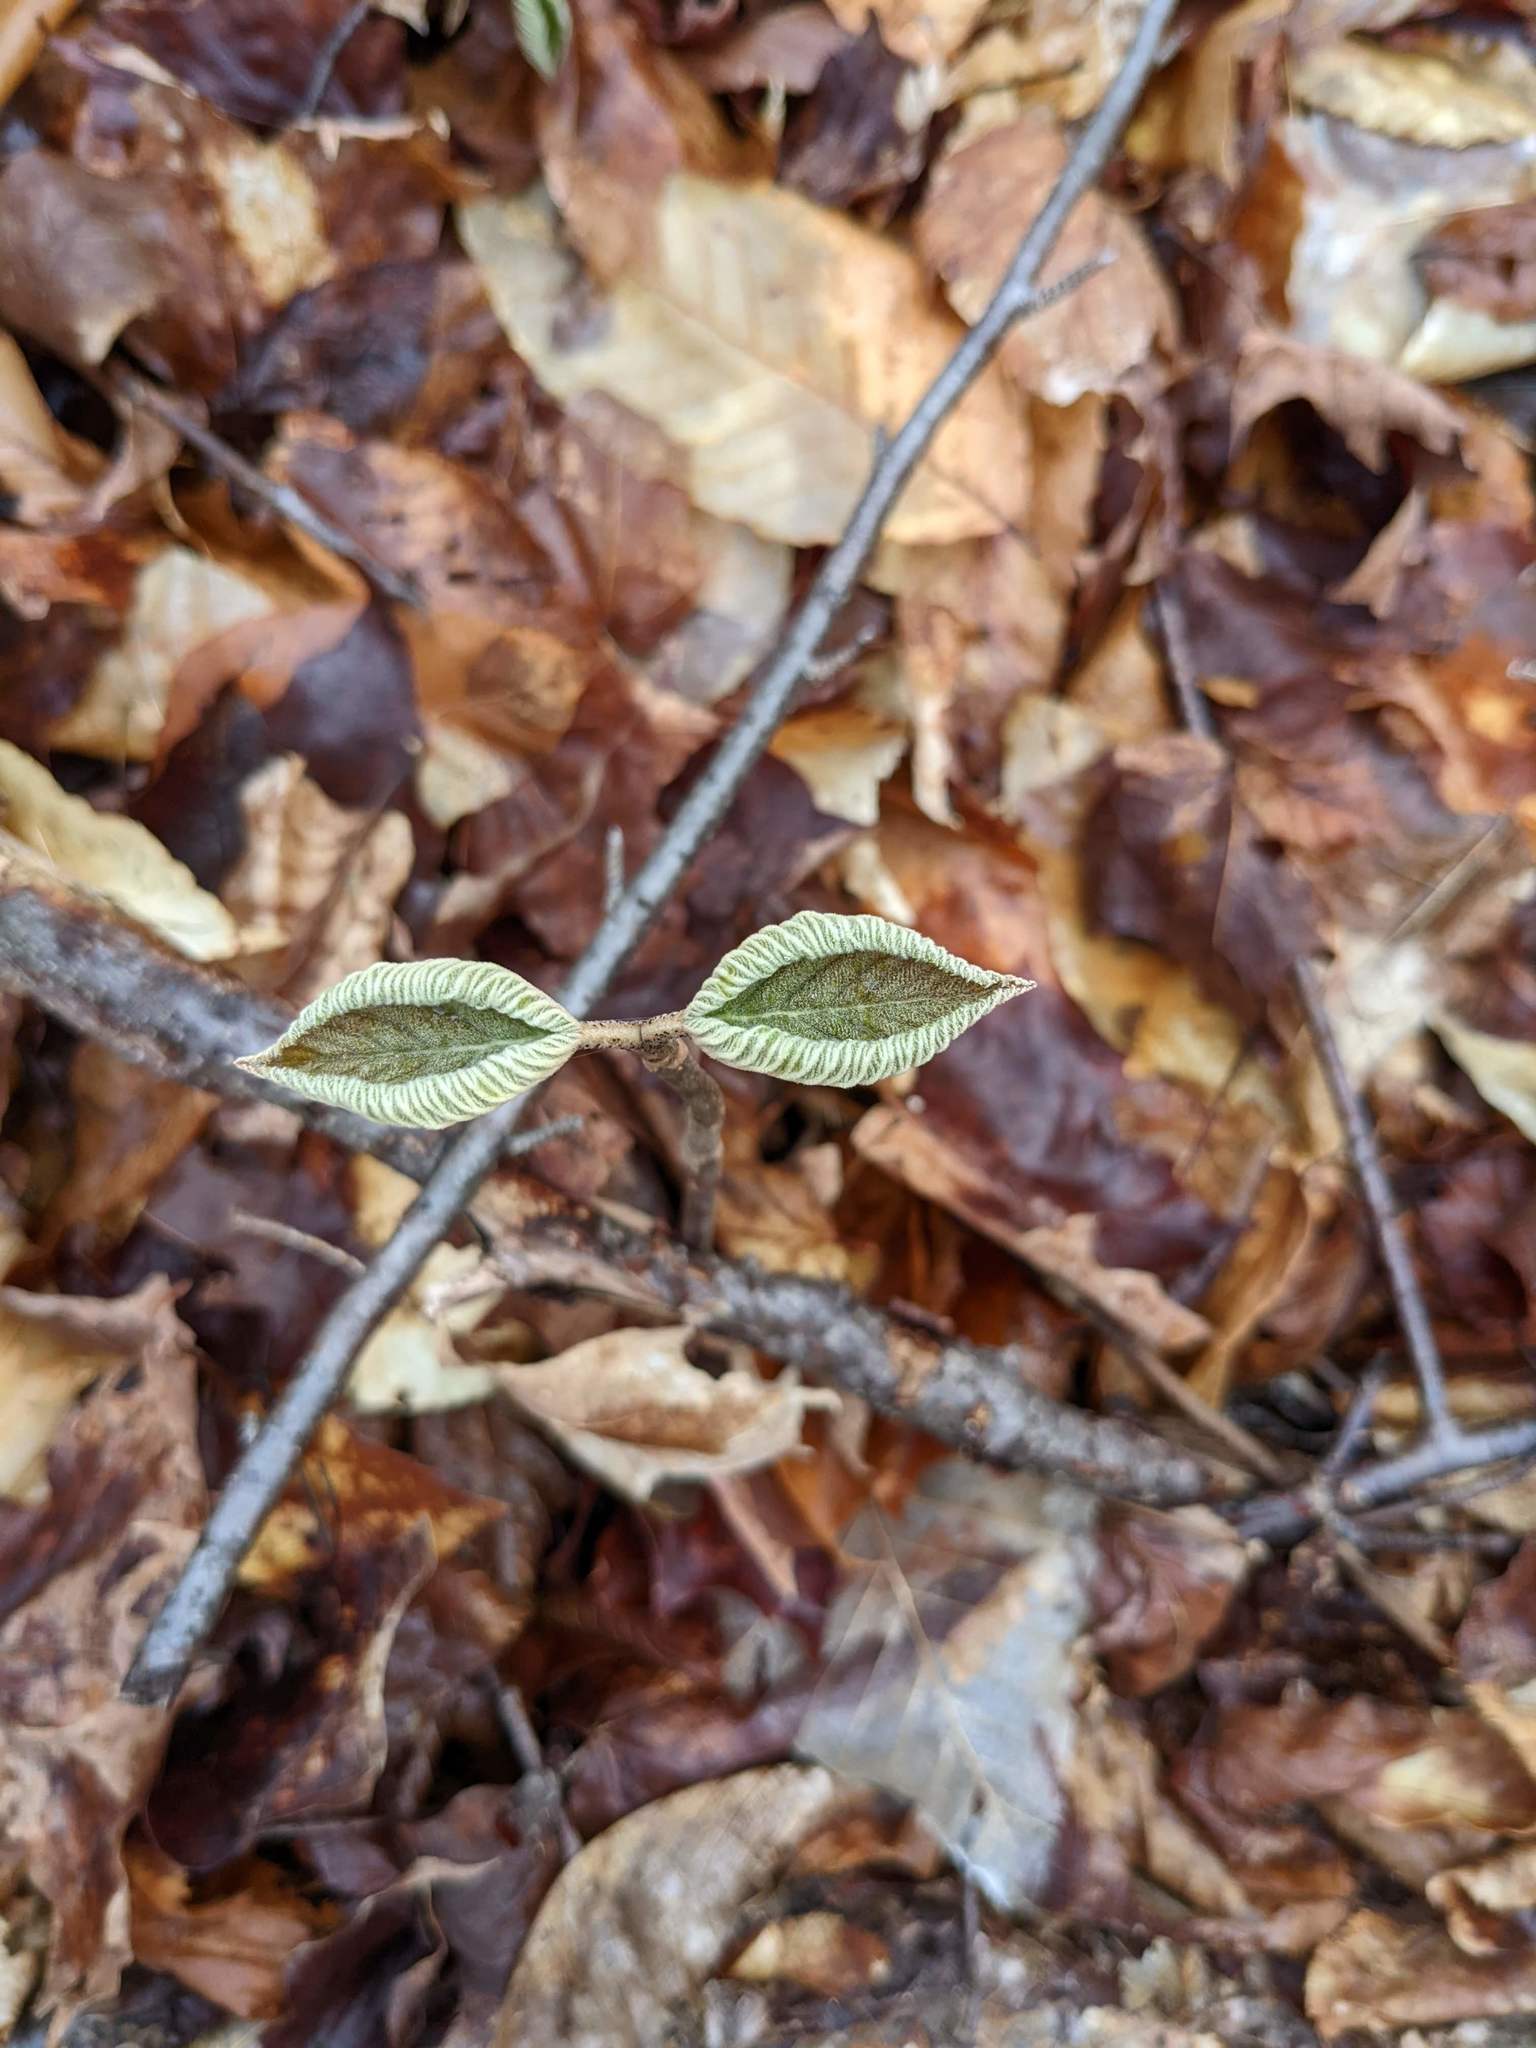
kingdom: Plantae
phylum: Tracheophyta
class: Magnoliopsida
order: Dipsacales
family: Viburnaceae
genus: Viburnum
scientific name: Viburnum lantanoides
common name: Hobblebush
